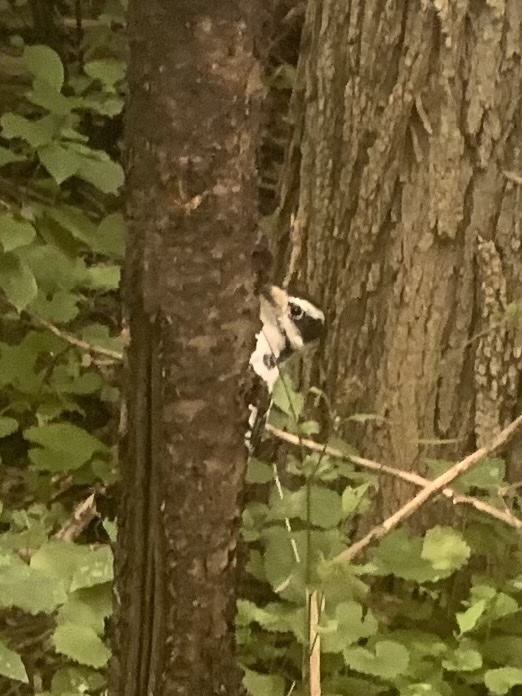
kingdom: Animalia
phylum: Chordata
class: Aves
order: Piciformes
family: Picidae
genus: Leuconotopicus
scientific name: Leuconotopicus villosus
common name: Hairy woodpecker
